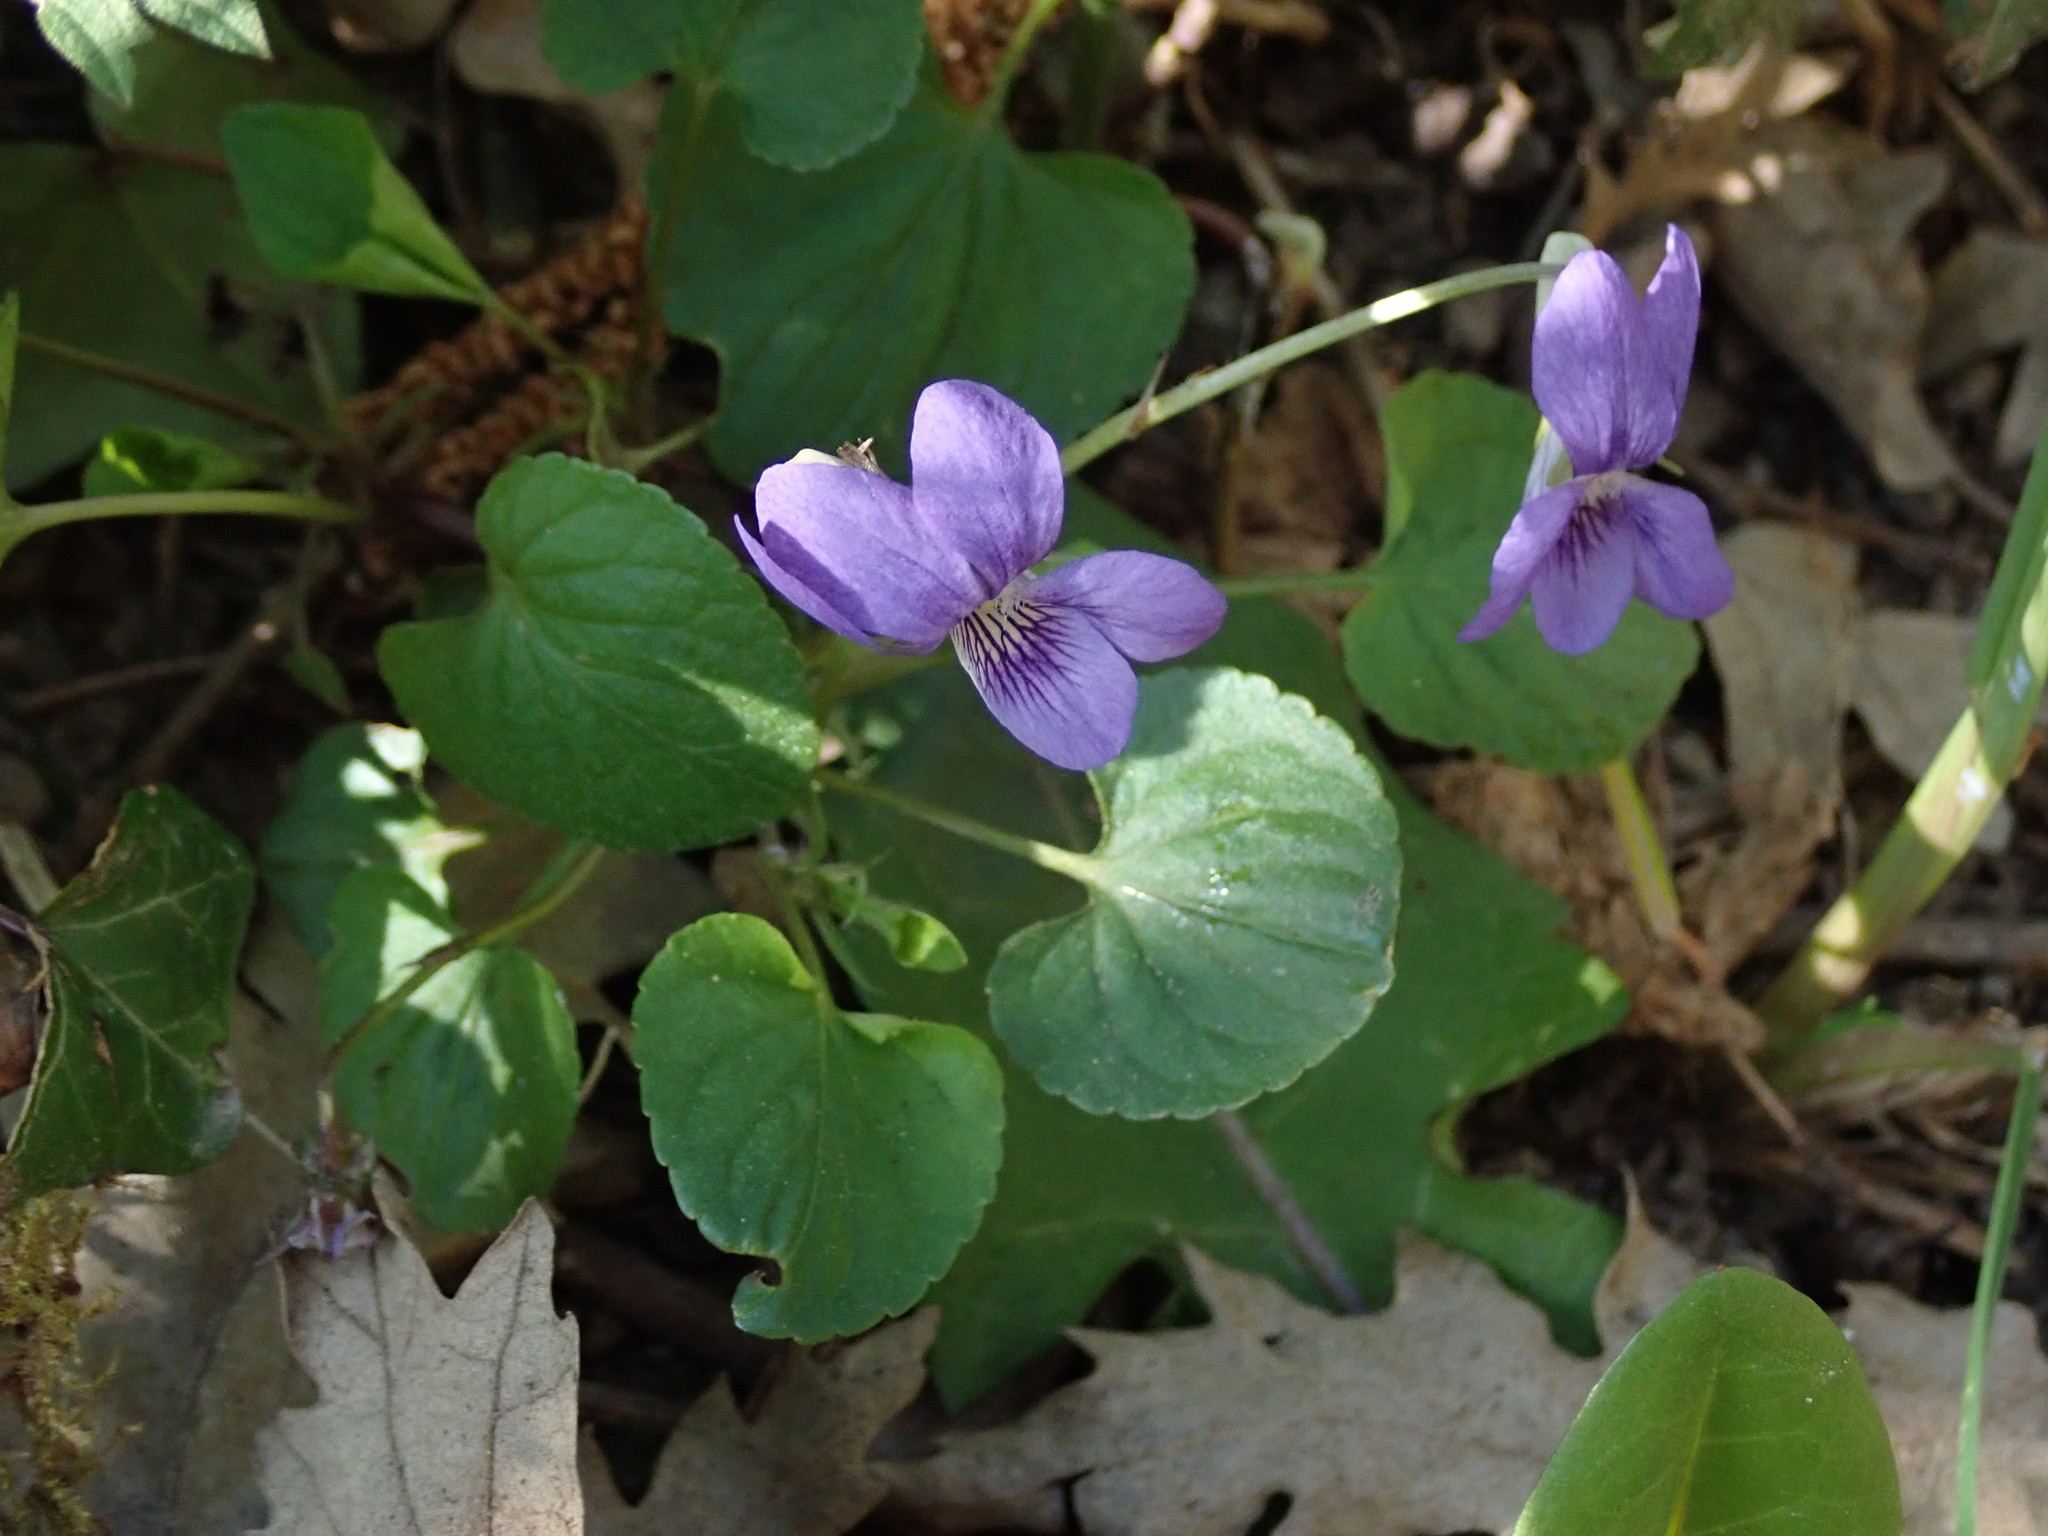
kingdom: Plantae
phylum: Tracheophyta
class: Magnoliopsida
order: Malpighiales
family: Violaceae
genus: Viola
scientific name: Viola riviniana
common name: Common dog-violet
